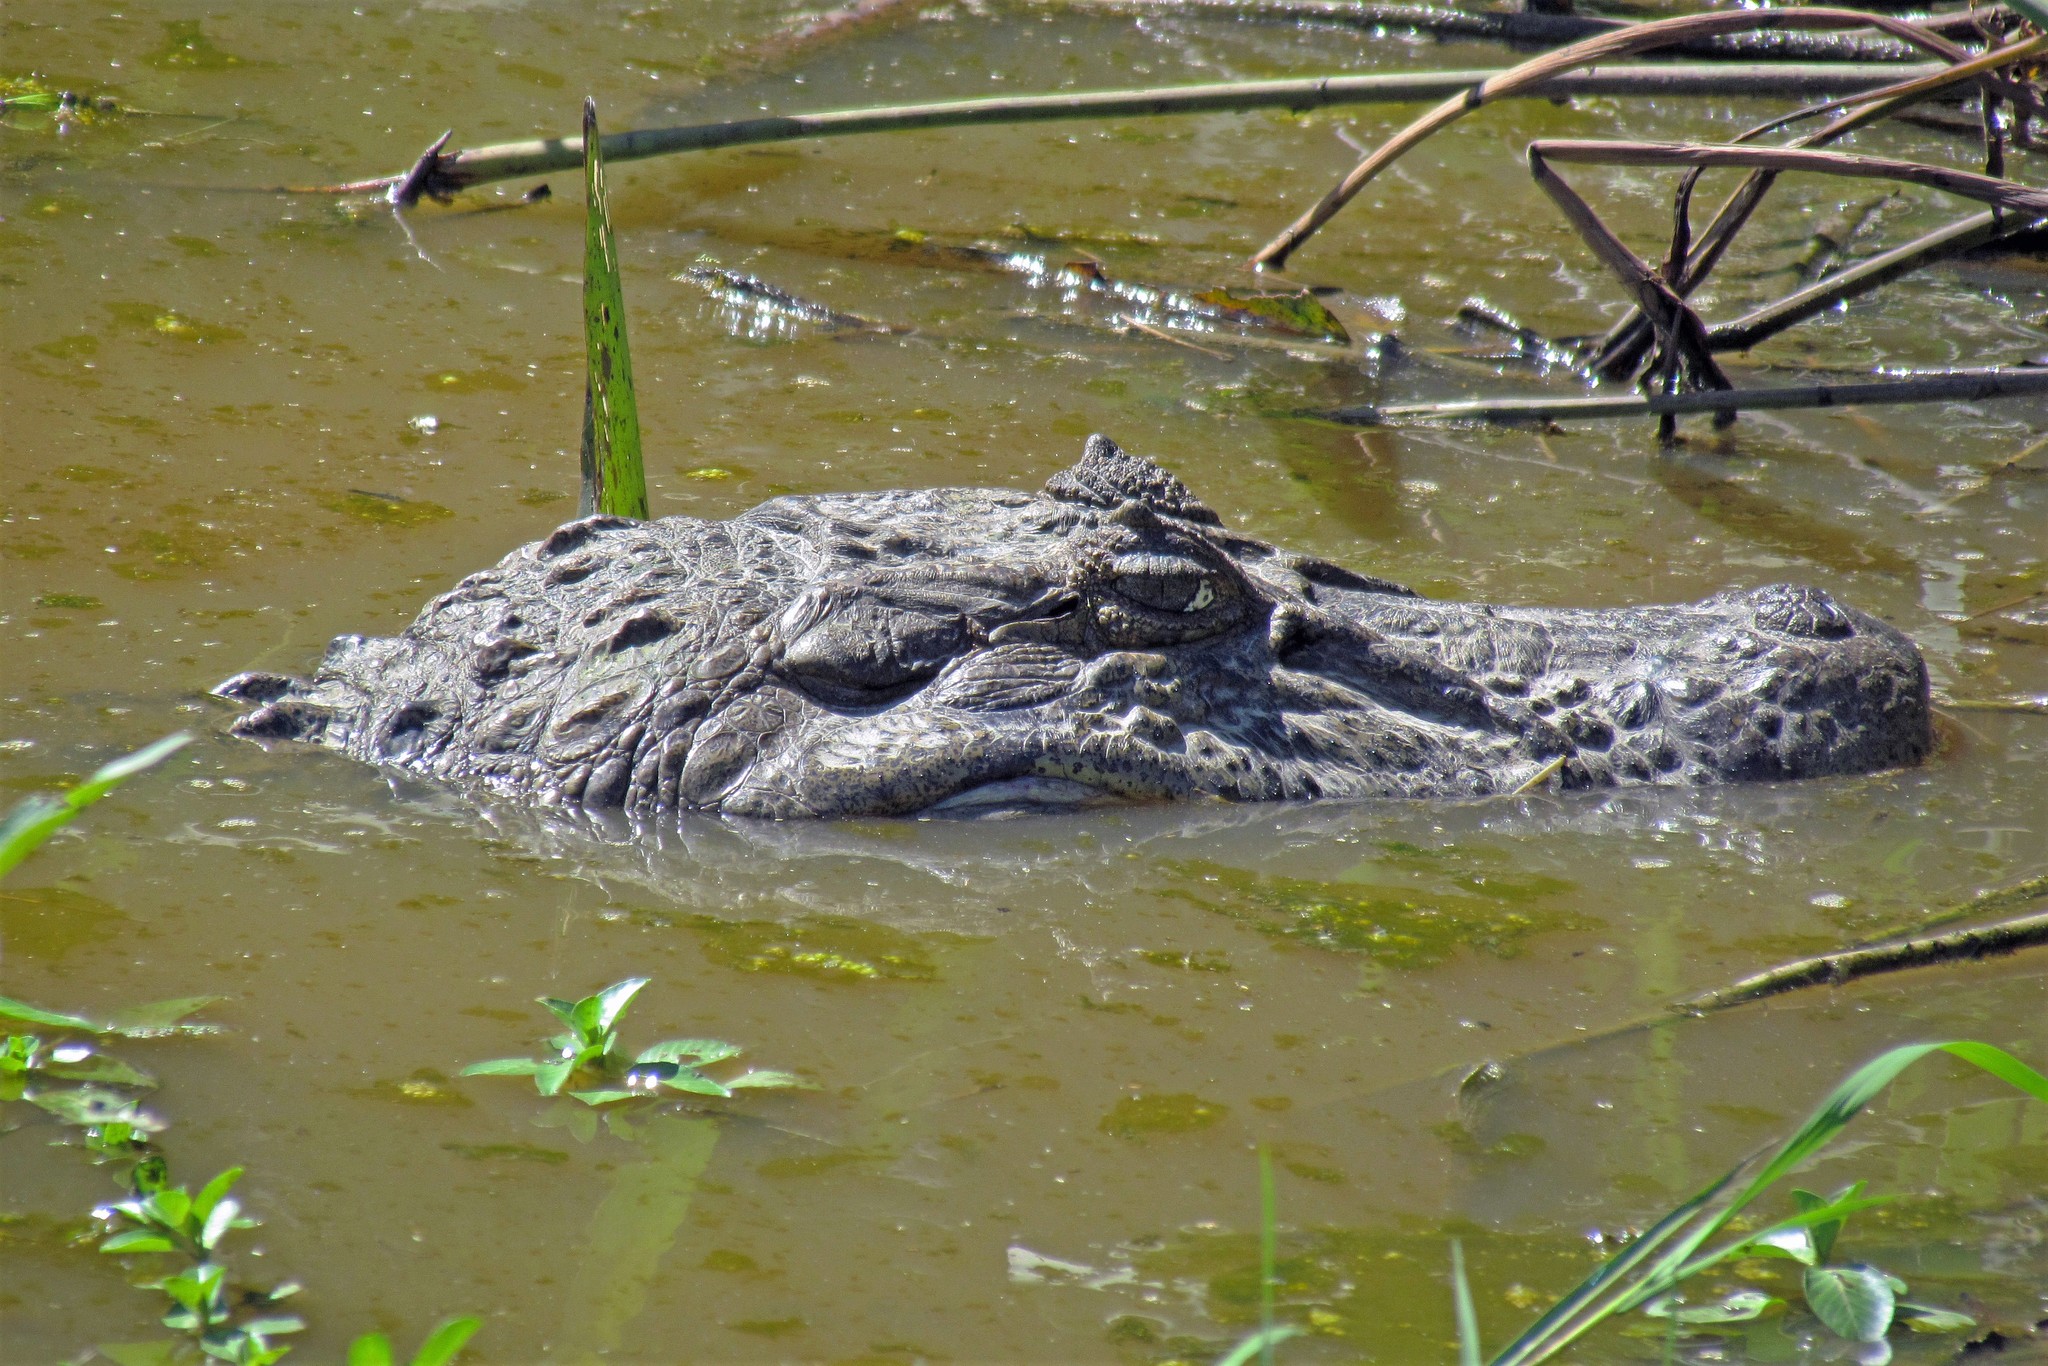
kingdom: Animalia
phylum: Chordata
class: Crocodylia
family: Alligatoridae
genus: Caiman
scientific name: Caiman latirostris
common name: Broad-snouted caiman
